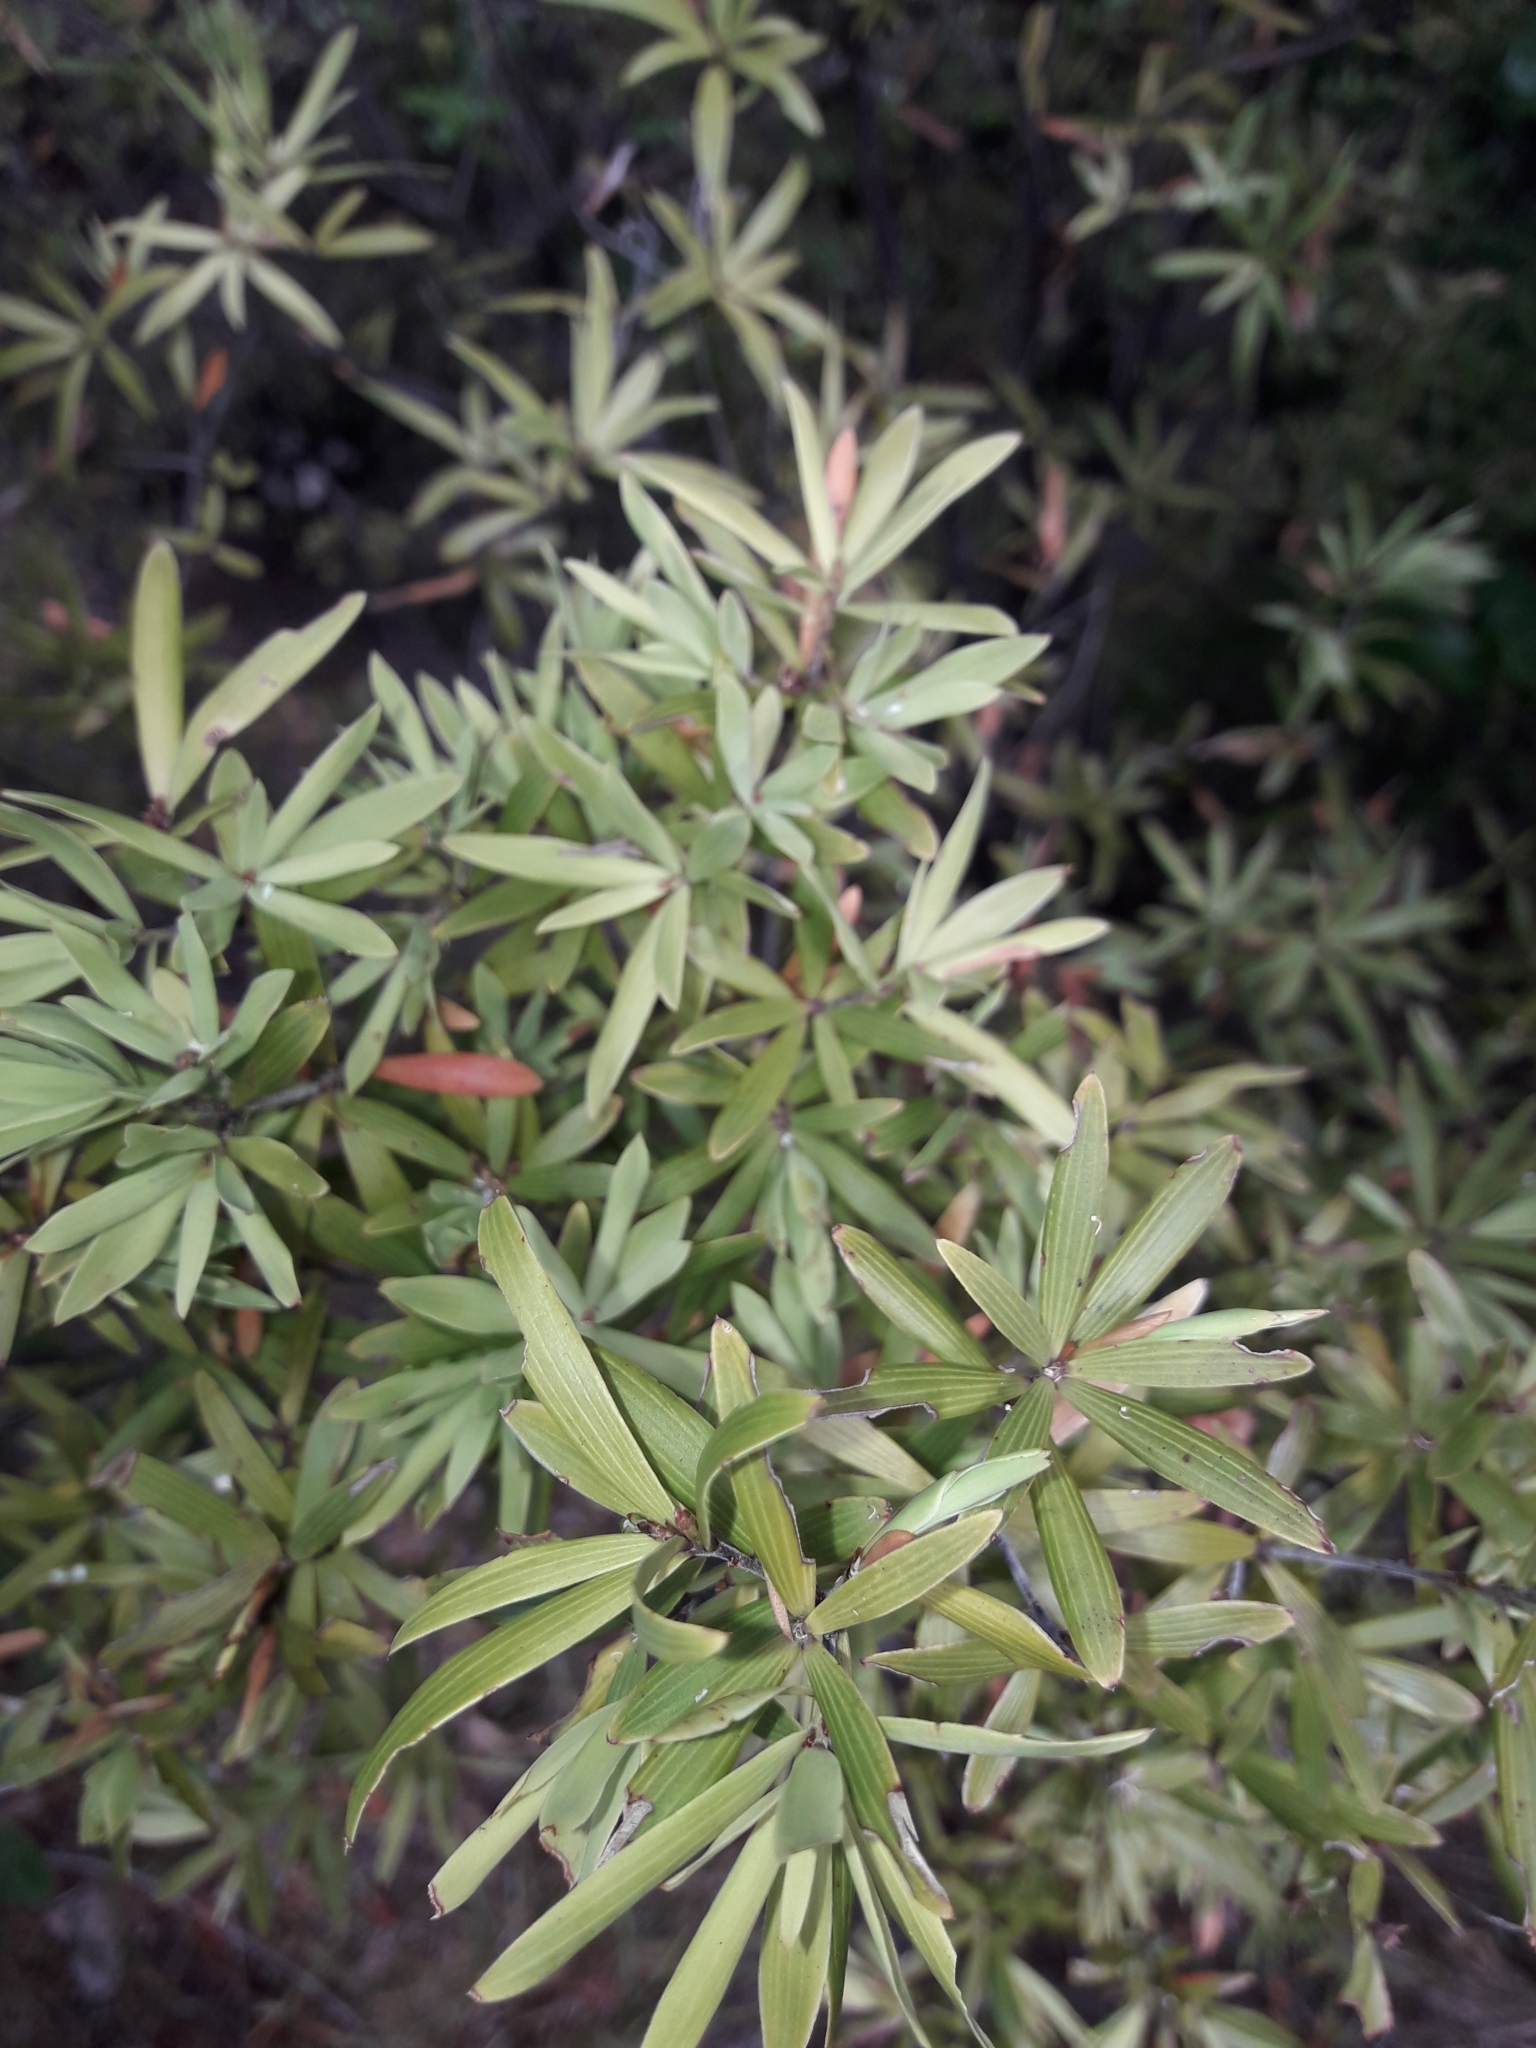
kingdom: Plantae
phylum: Tracheophyta
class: Magnoliopsida
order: Ericales
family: Ericaceae
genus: Leucopogon
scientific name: Leucopogon fasciculatus
